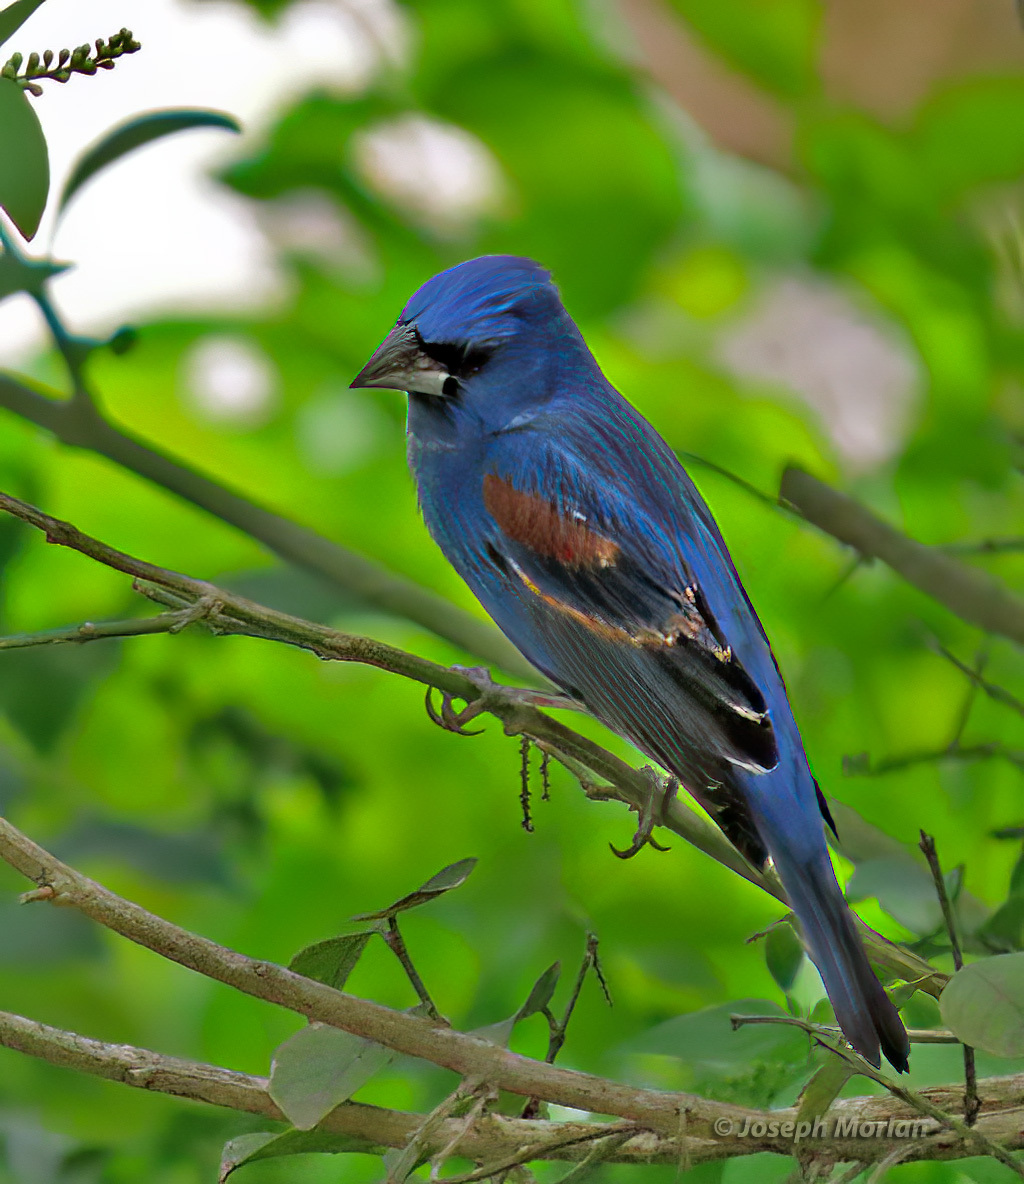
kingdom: Animalia
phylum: Chordata
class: Aves
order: Passeriformes
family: Cardinalidae
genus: Passerina
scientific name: Passerina caerulea
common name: Blue grosbeak
